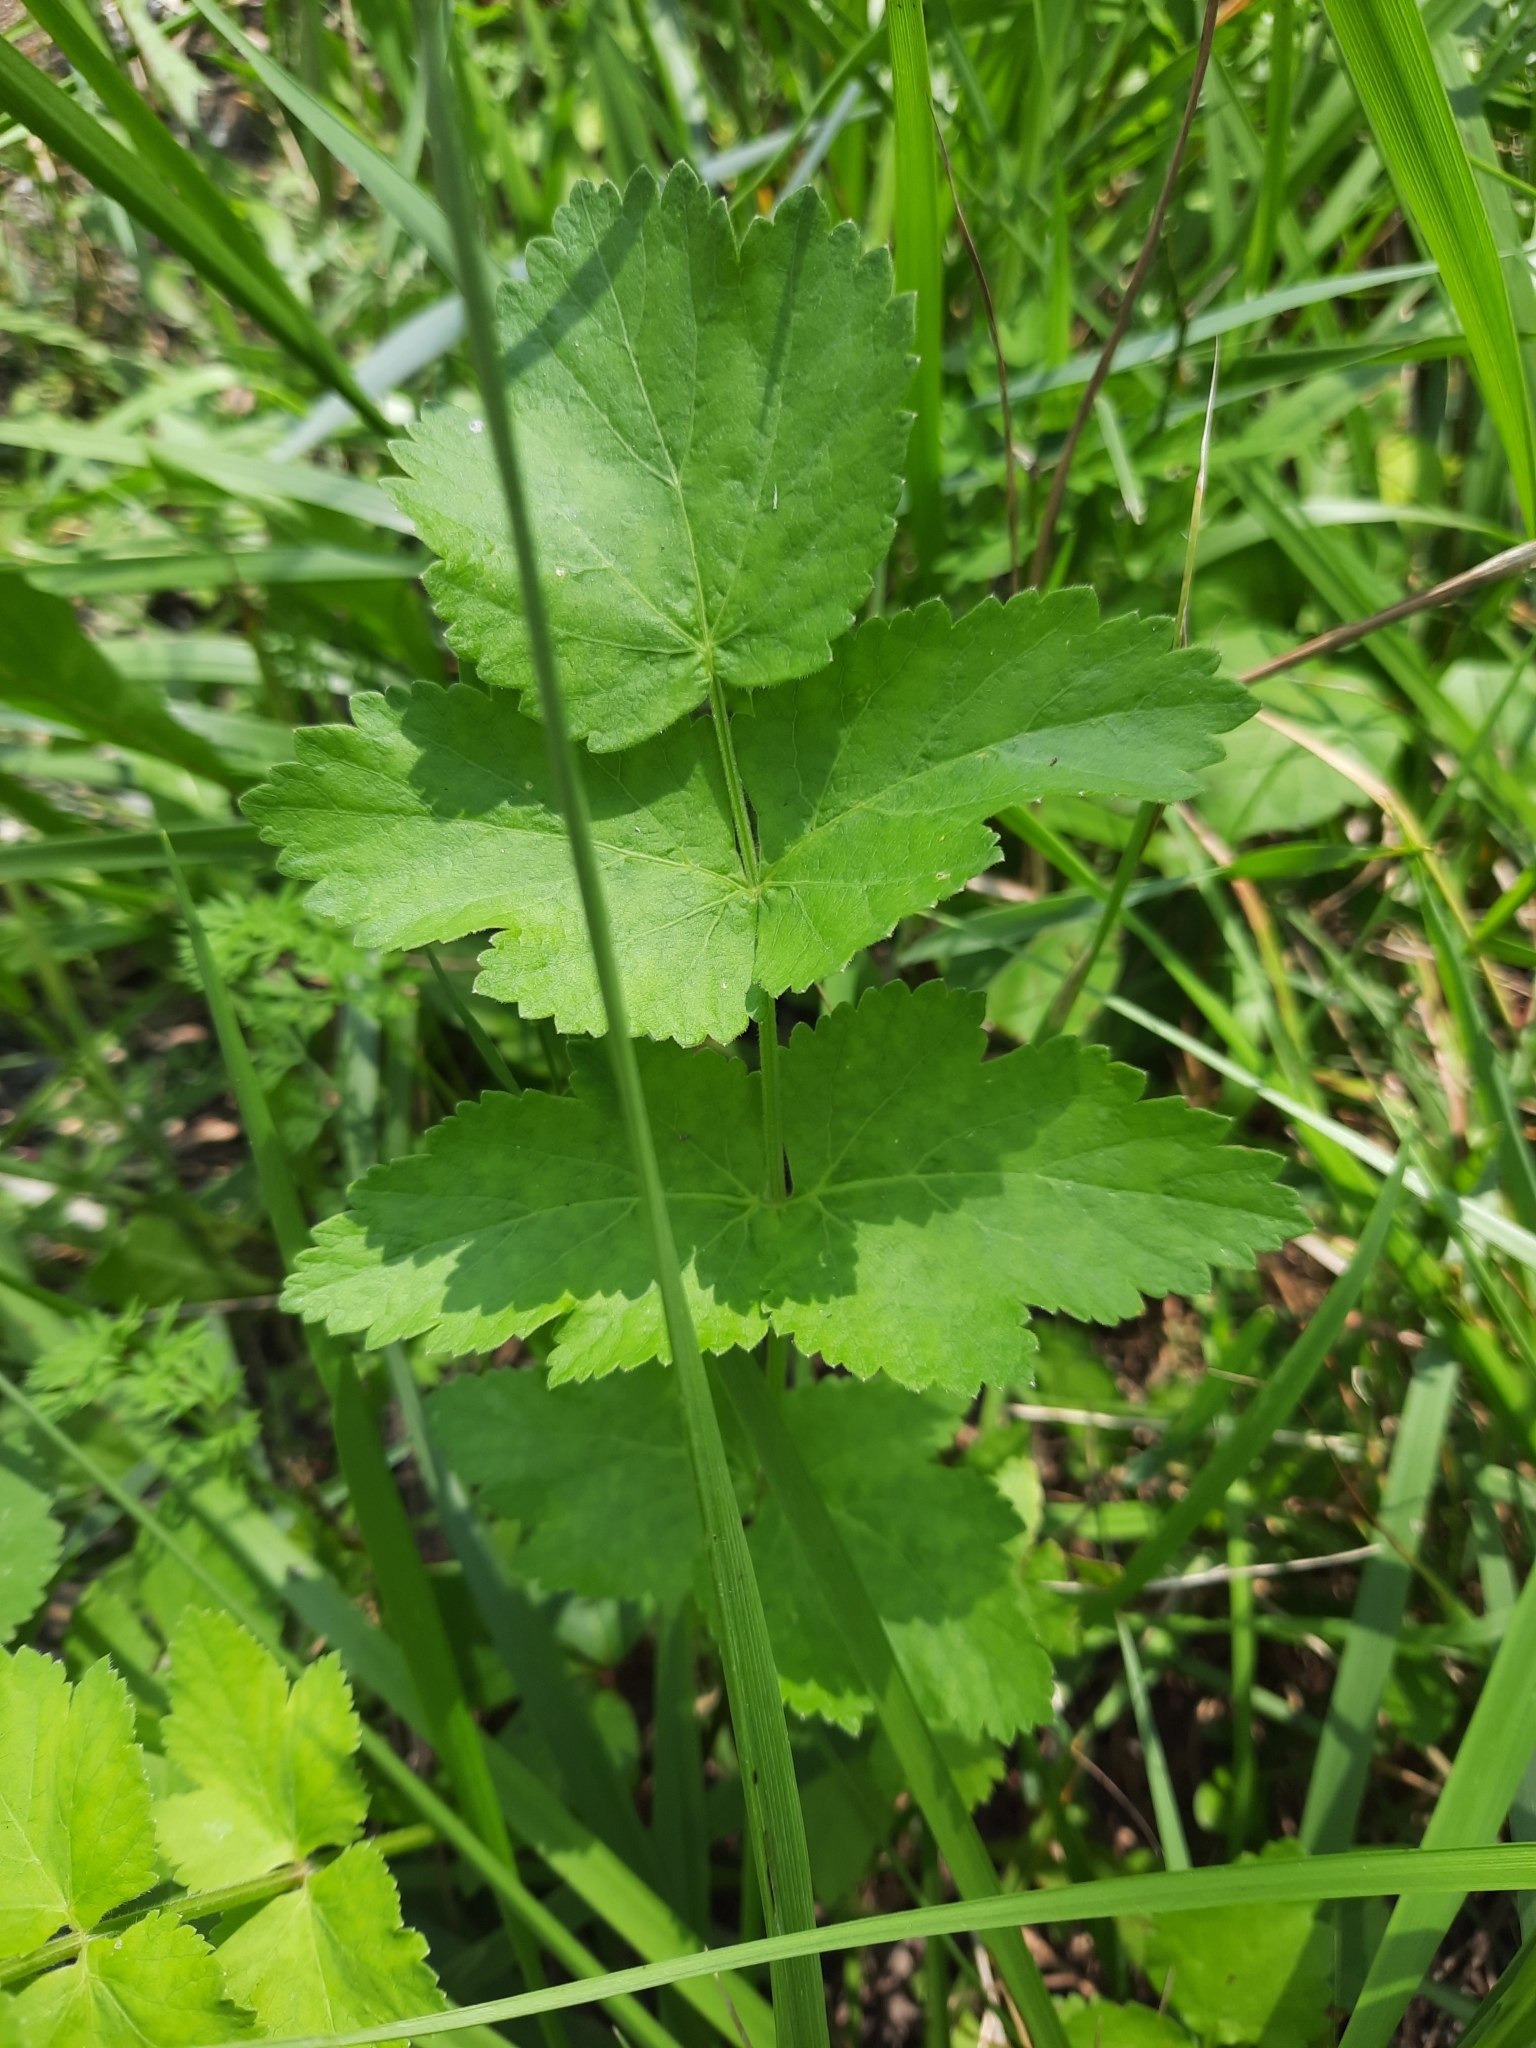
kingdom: Plantae
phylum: Tracheophyta
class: Magnoliopsida
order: Apiales
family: Apiaceae
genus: Pastinaca
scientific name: Pastinaca sativa
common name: Wild parsnip
